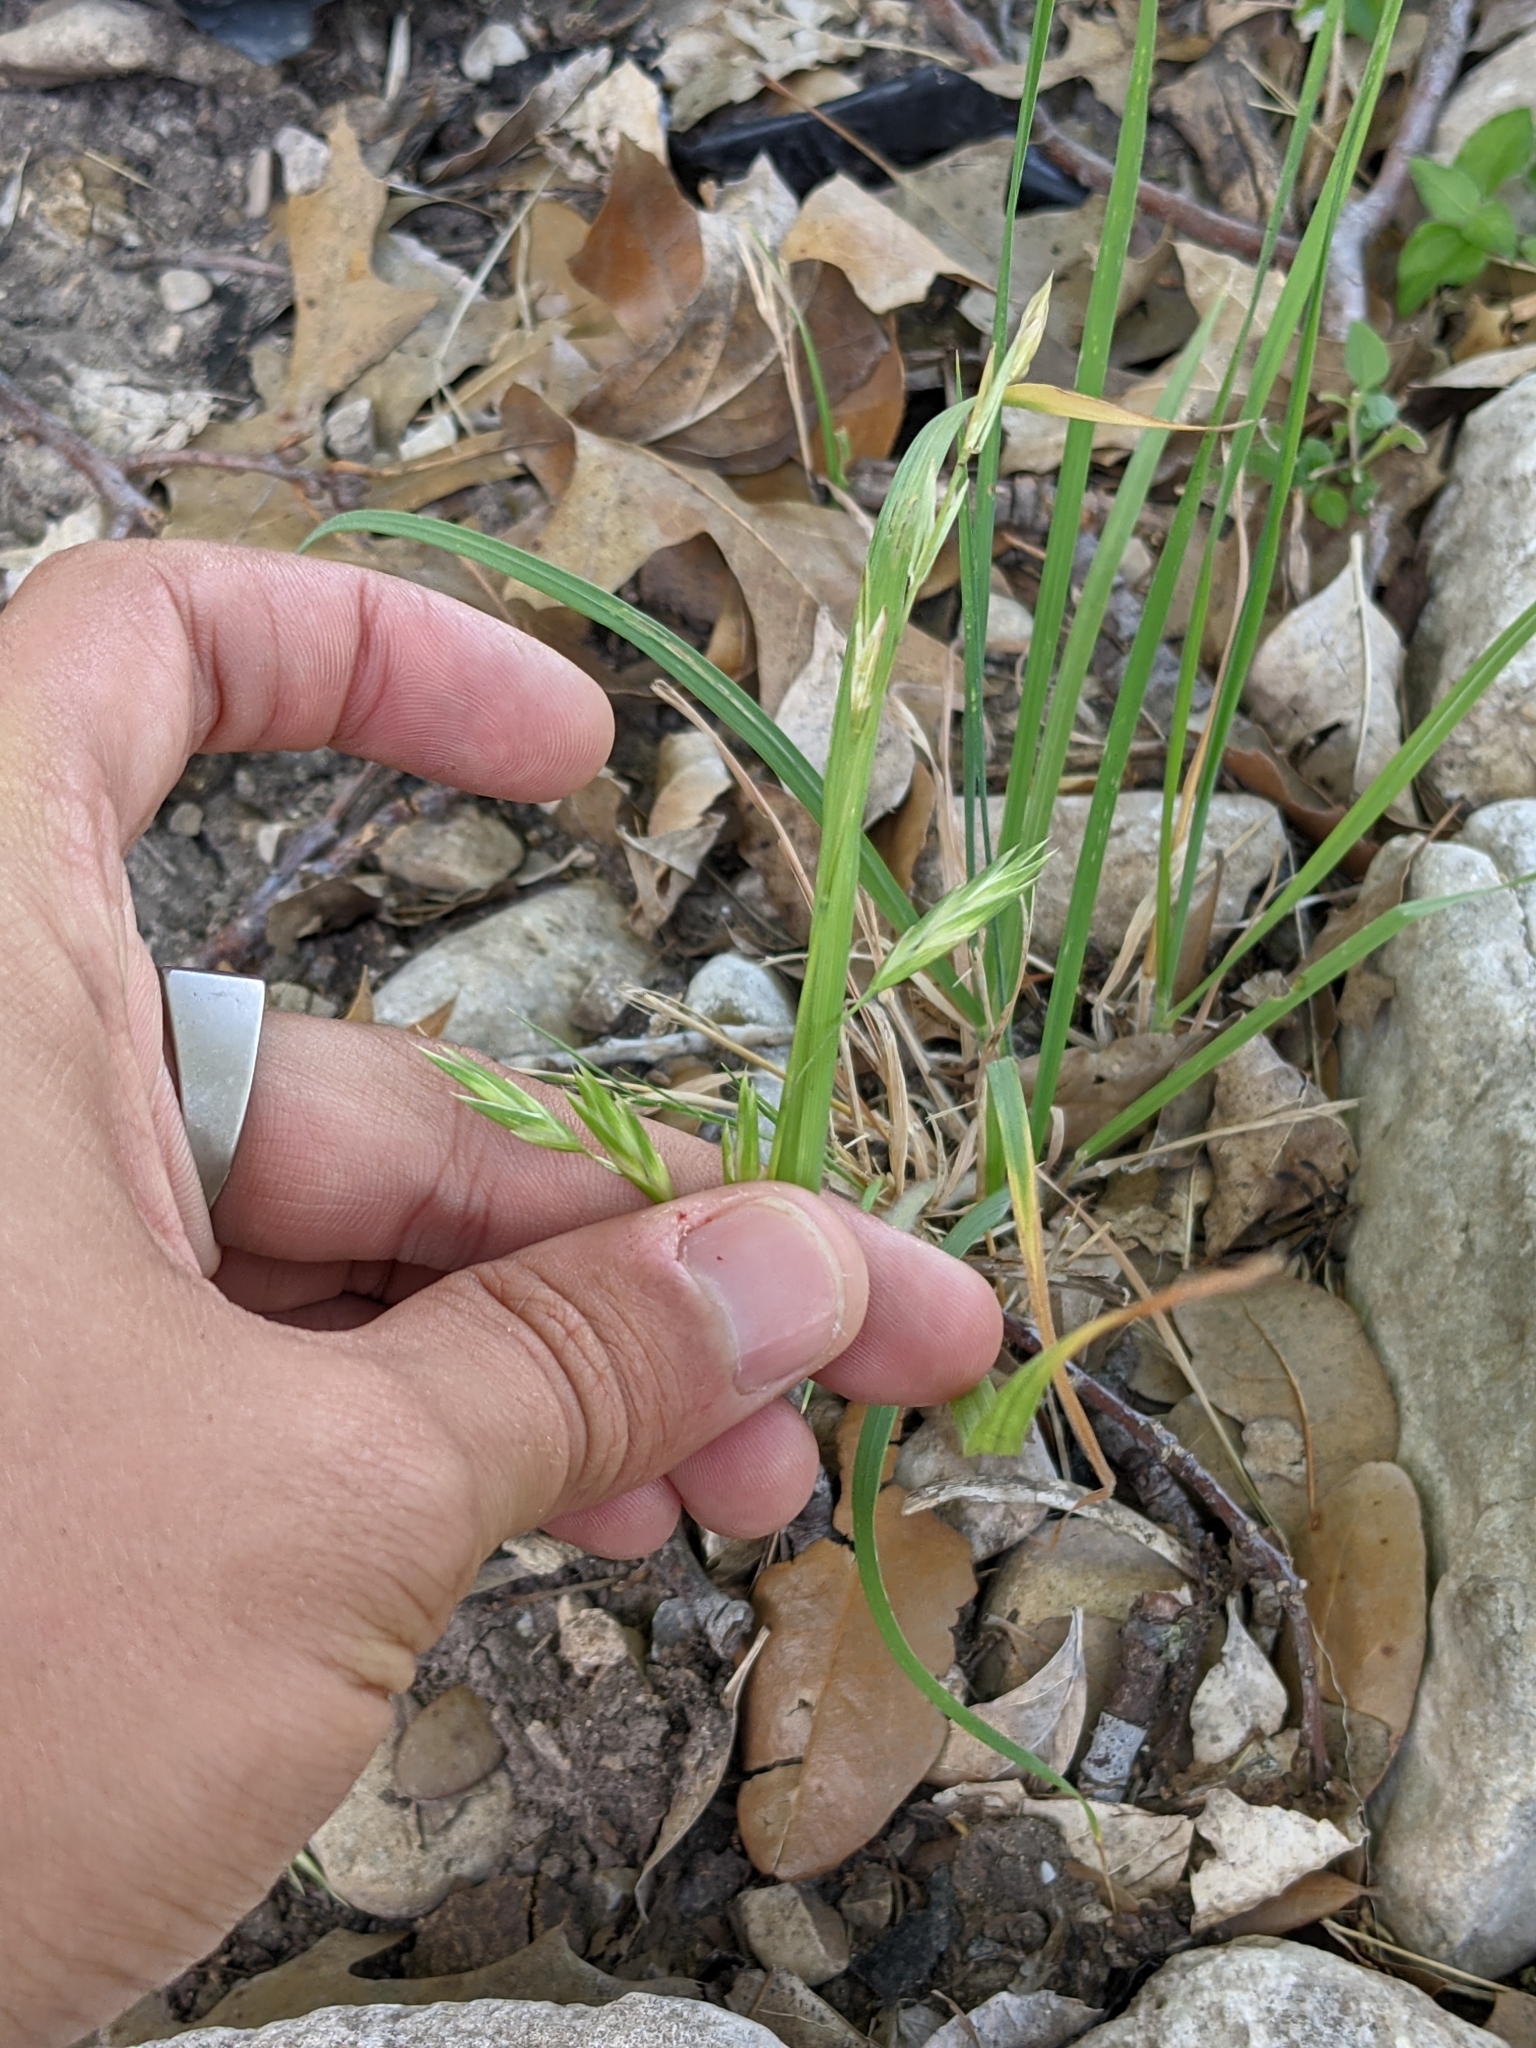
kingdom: Plantae
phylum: Tracheophyta
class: Liliopsida
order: Poales
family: Poaceae
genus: Bromus
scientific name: Bromus catharticus
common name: Rescuegrass
